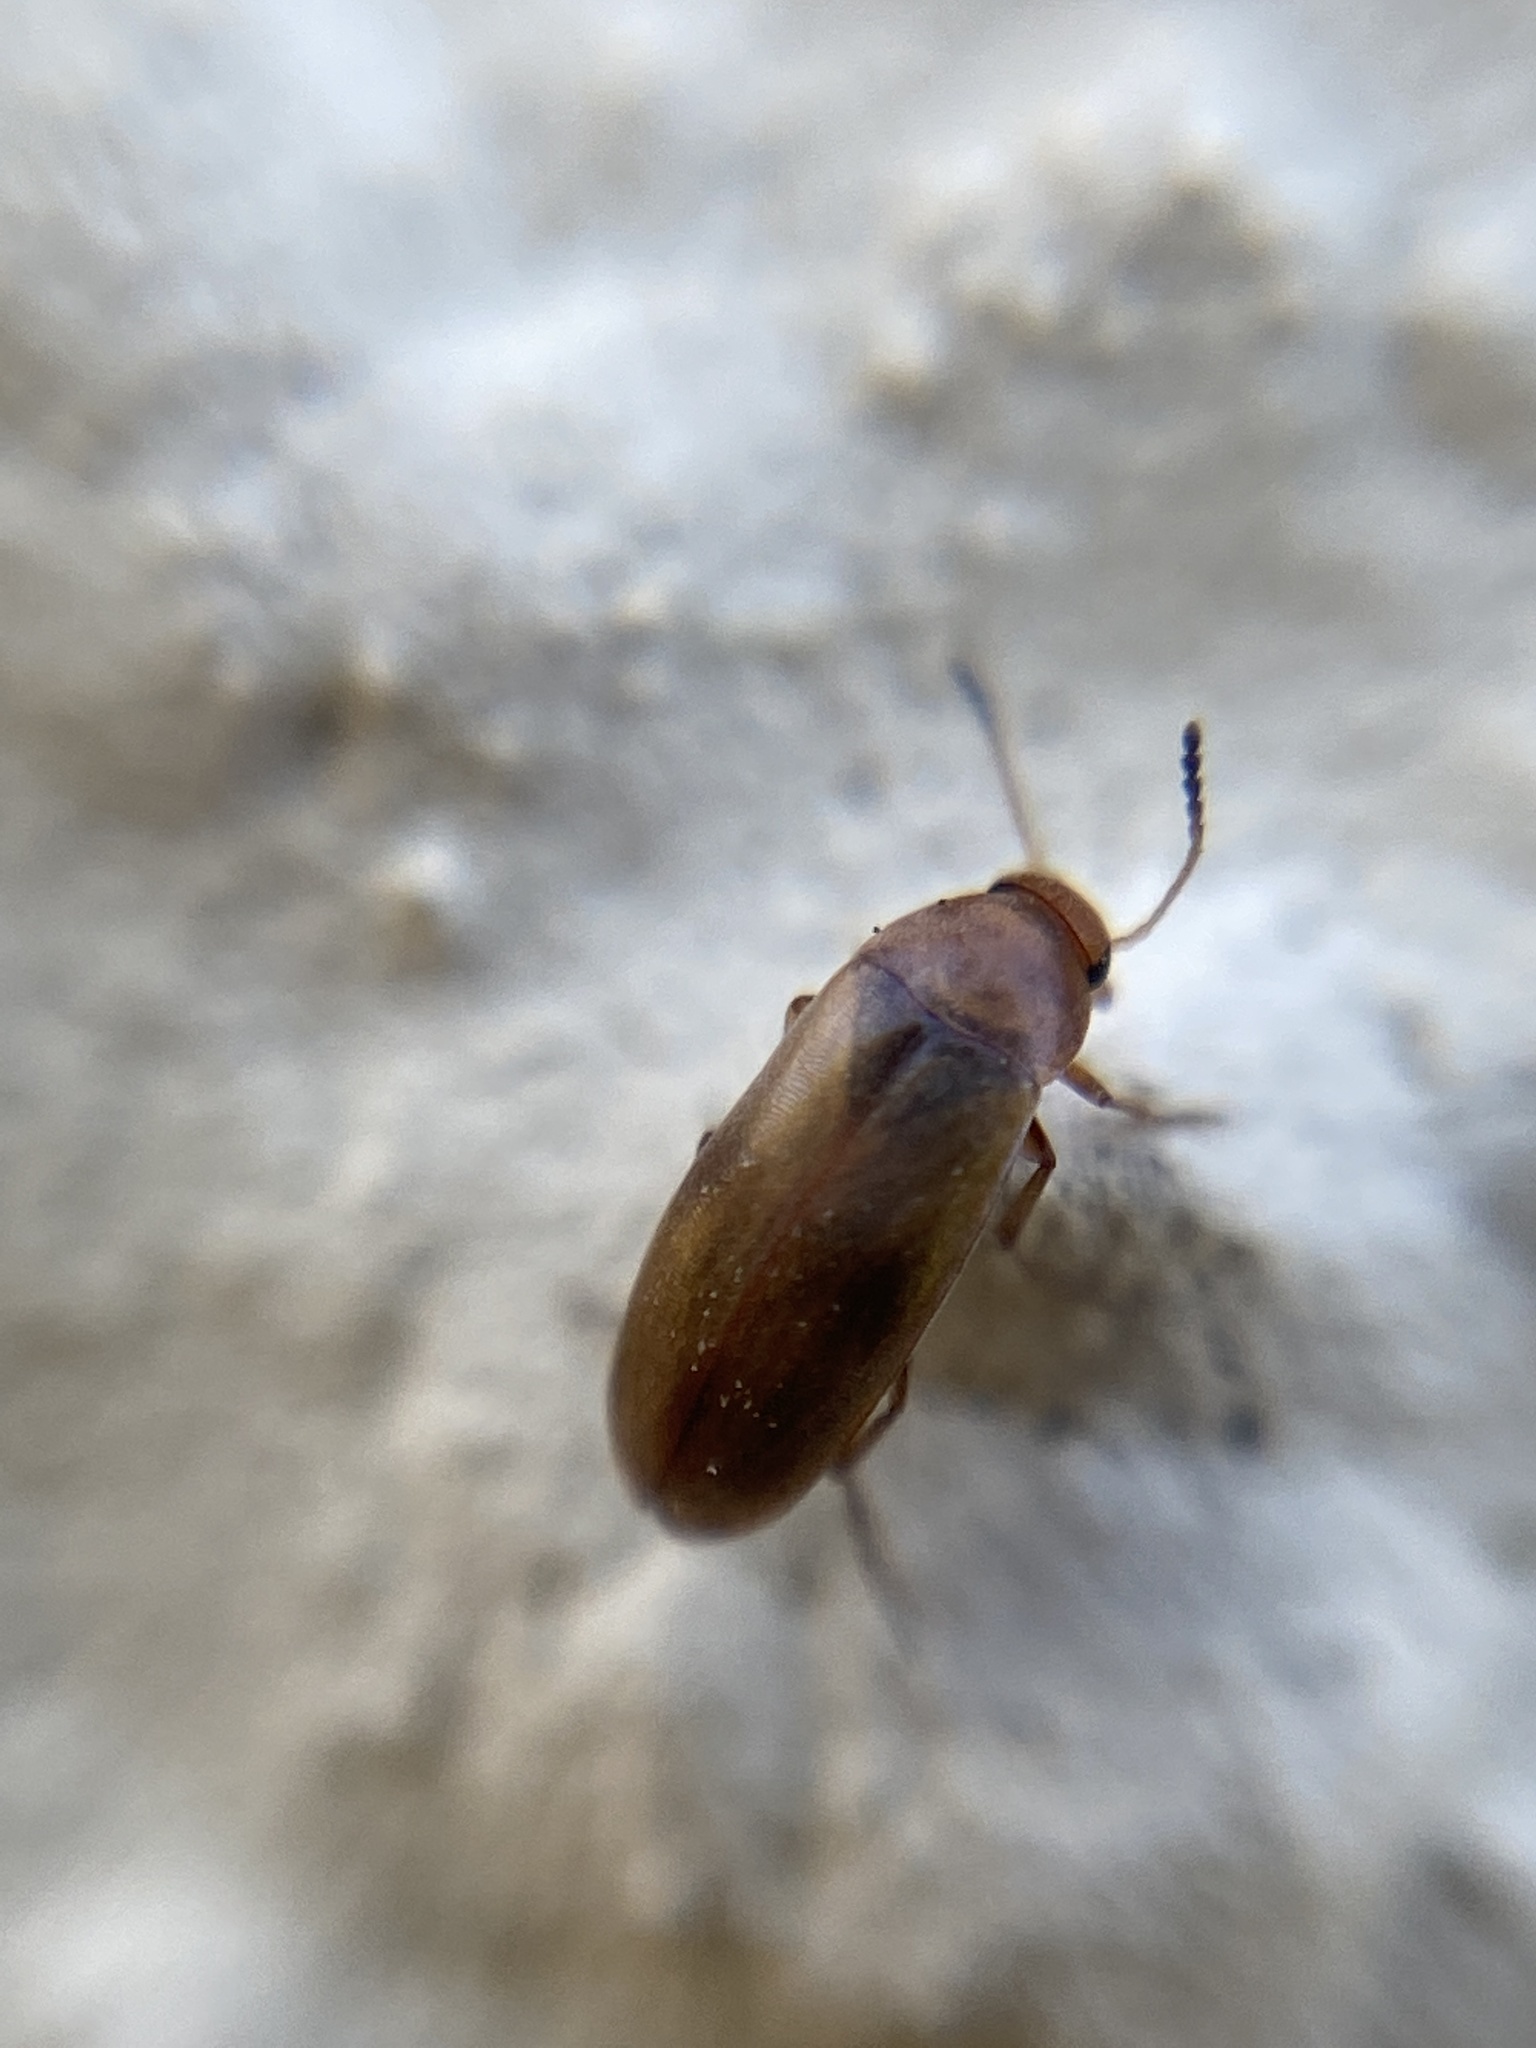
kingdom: Animalia
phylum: Arthropoda
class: Insecta
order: Coleoptera
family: Scraptiidae
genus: Anaspis
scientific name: Anaspis maculata
